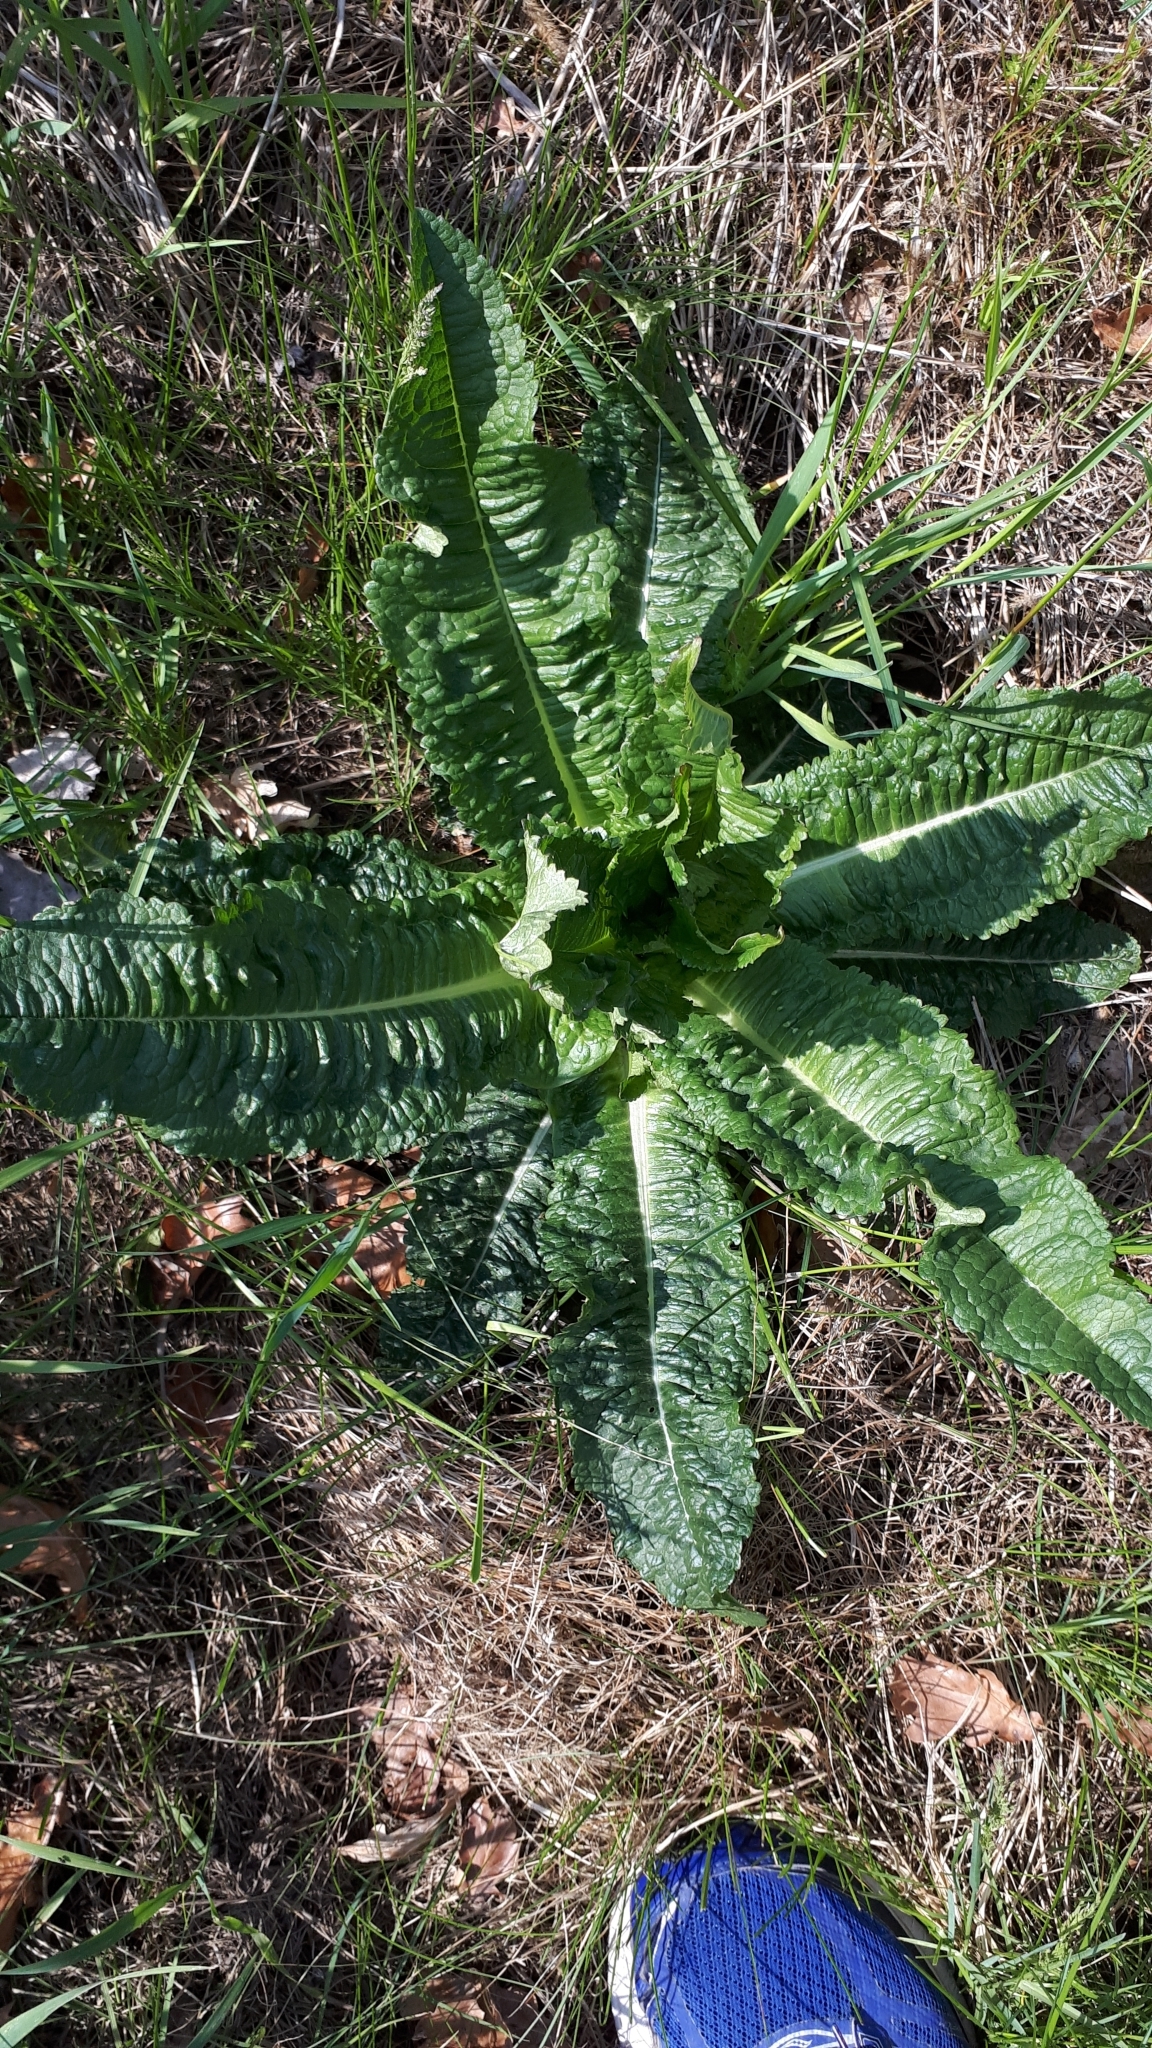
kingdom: Plantae
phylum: Tracheophyta
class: Magnoliopsida
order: Dipsacales
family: Caprifoliaceae
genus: Dipsacus
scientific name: Dipsacus fullonum
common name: Teasel
